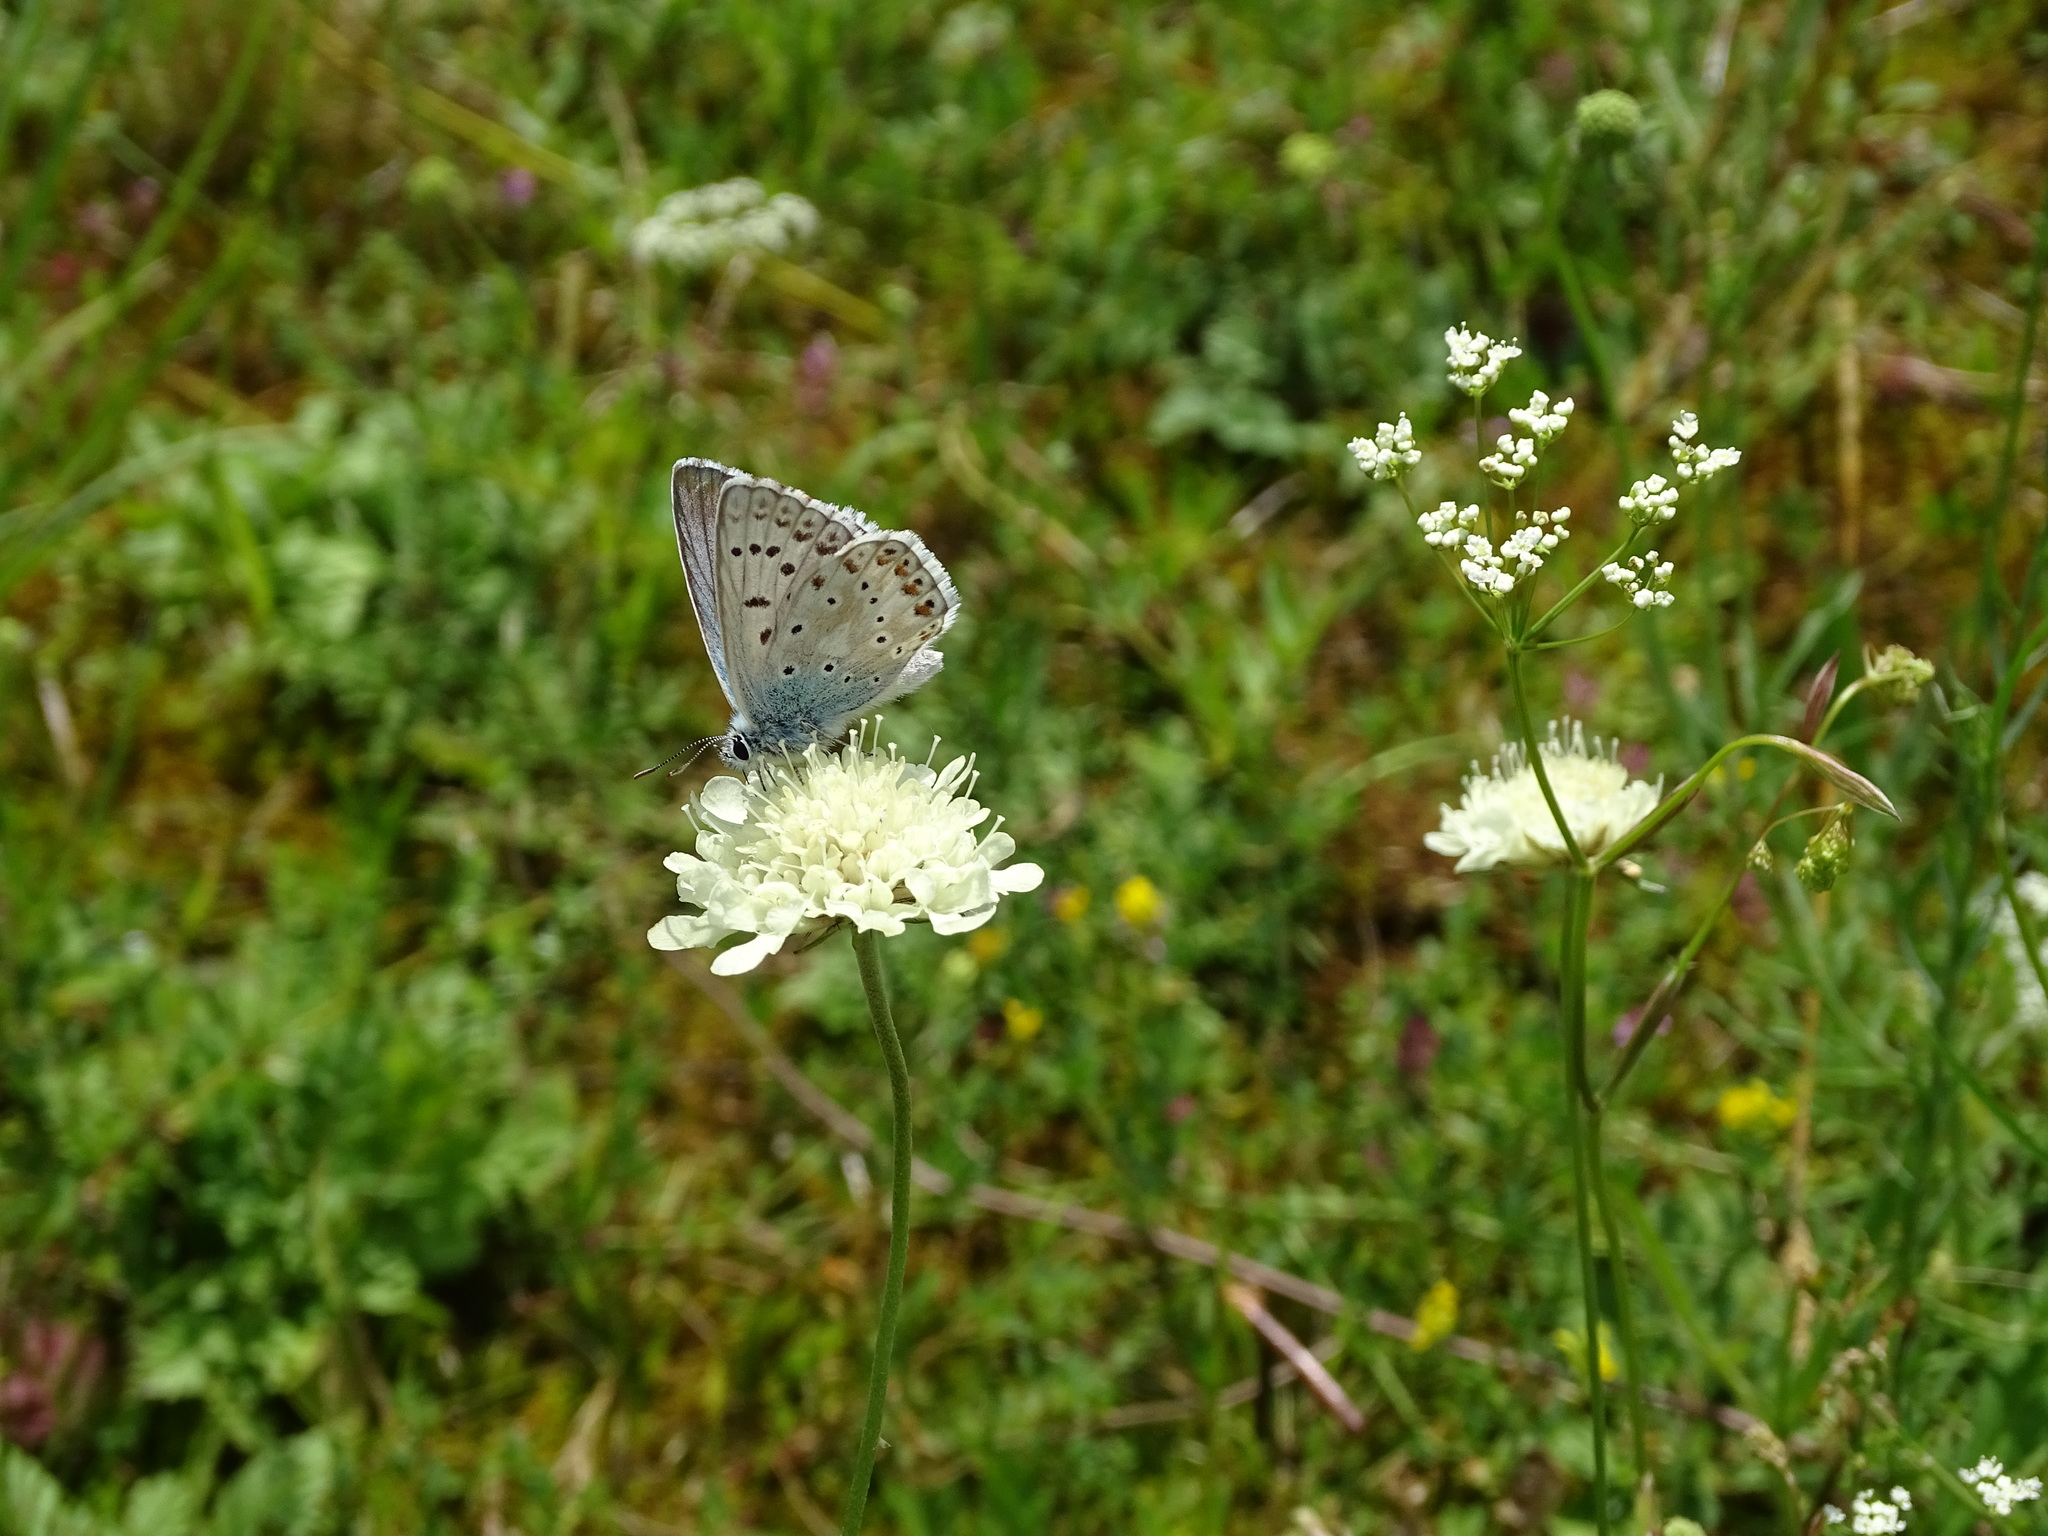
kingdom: Animalia
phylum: Arthropoda
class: Insecta
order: Lepidoptera
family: Lycaenidae
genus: Lysandra
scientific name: Lysandra coridon
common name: Chalkhill blue
